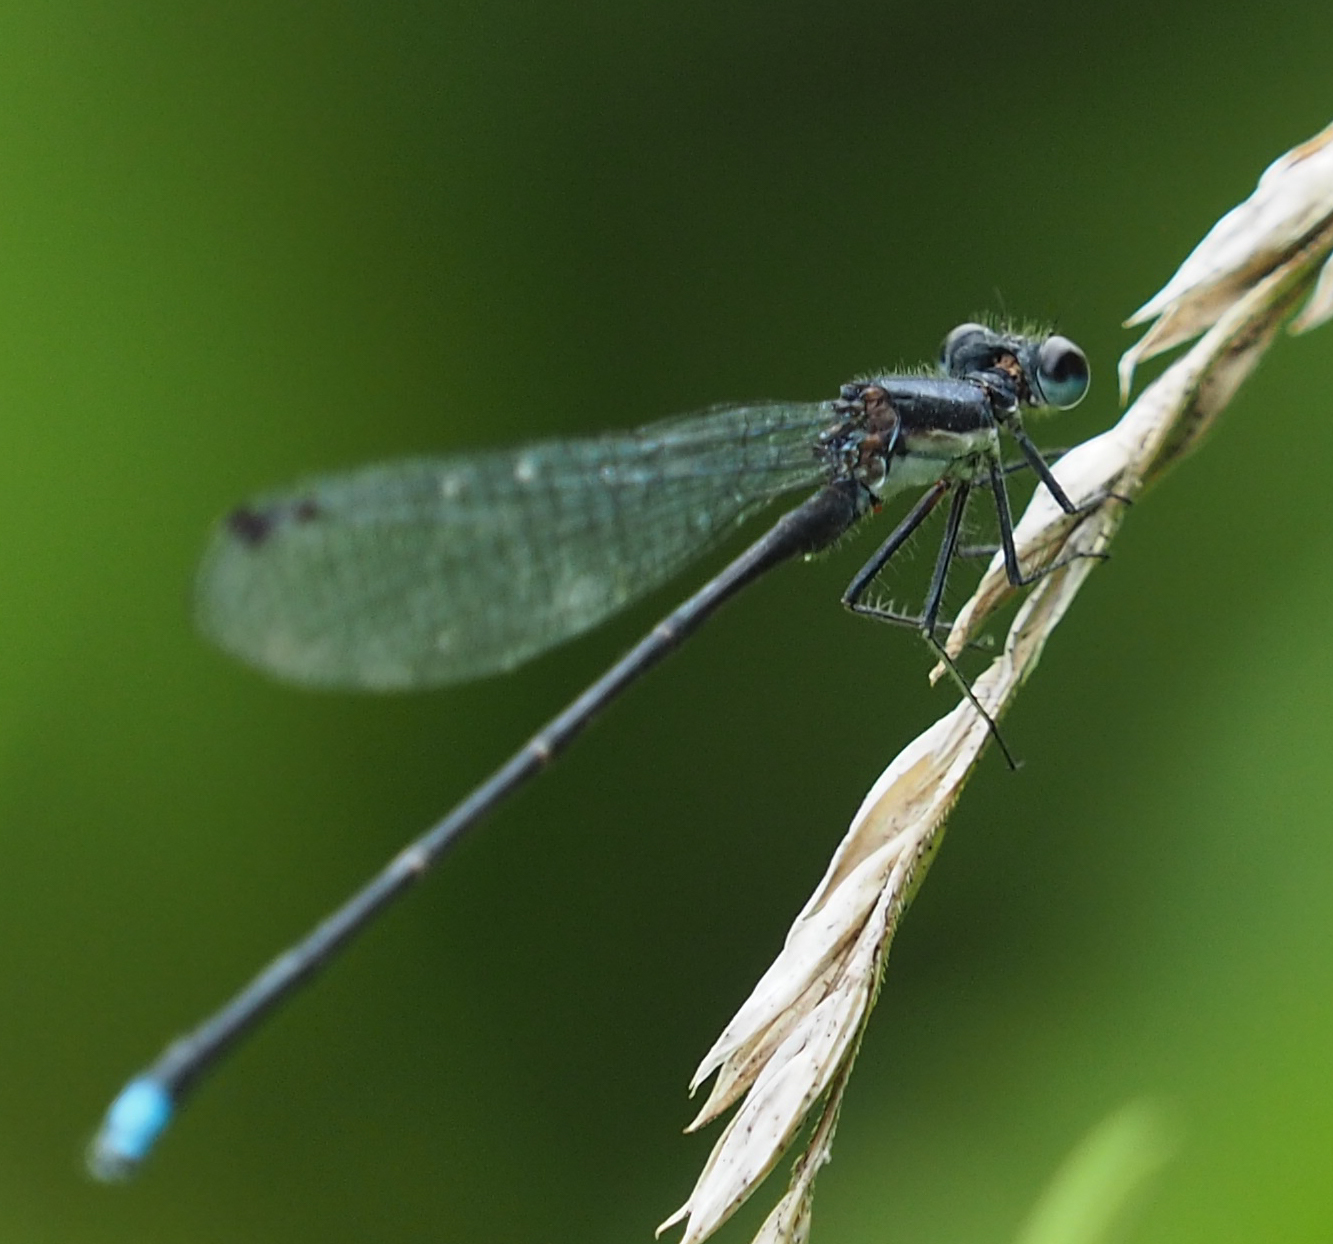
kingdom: Animalia
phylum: Arthropoda
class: Insecta
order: Odonata
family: Coenagrionidae
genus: Argia
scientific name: Argia tibialis
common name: Blue-tipped dancer
